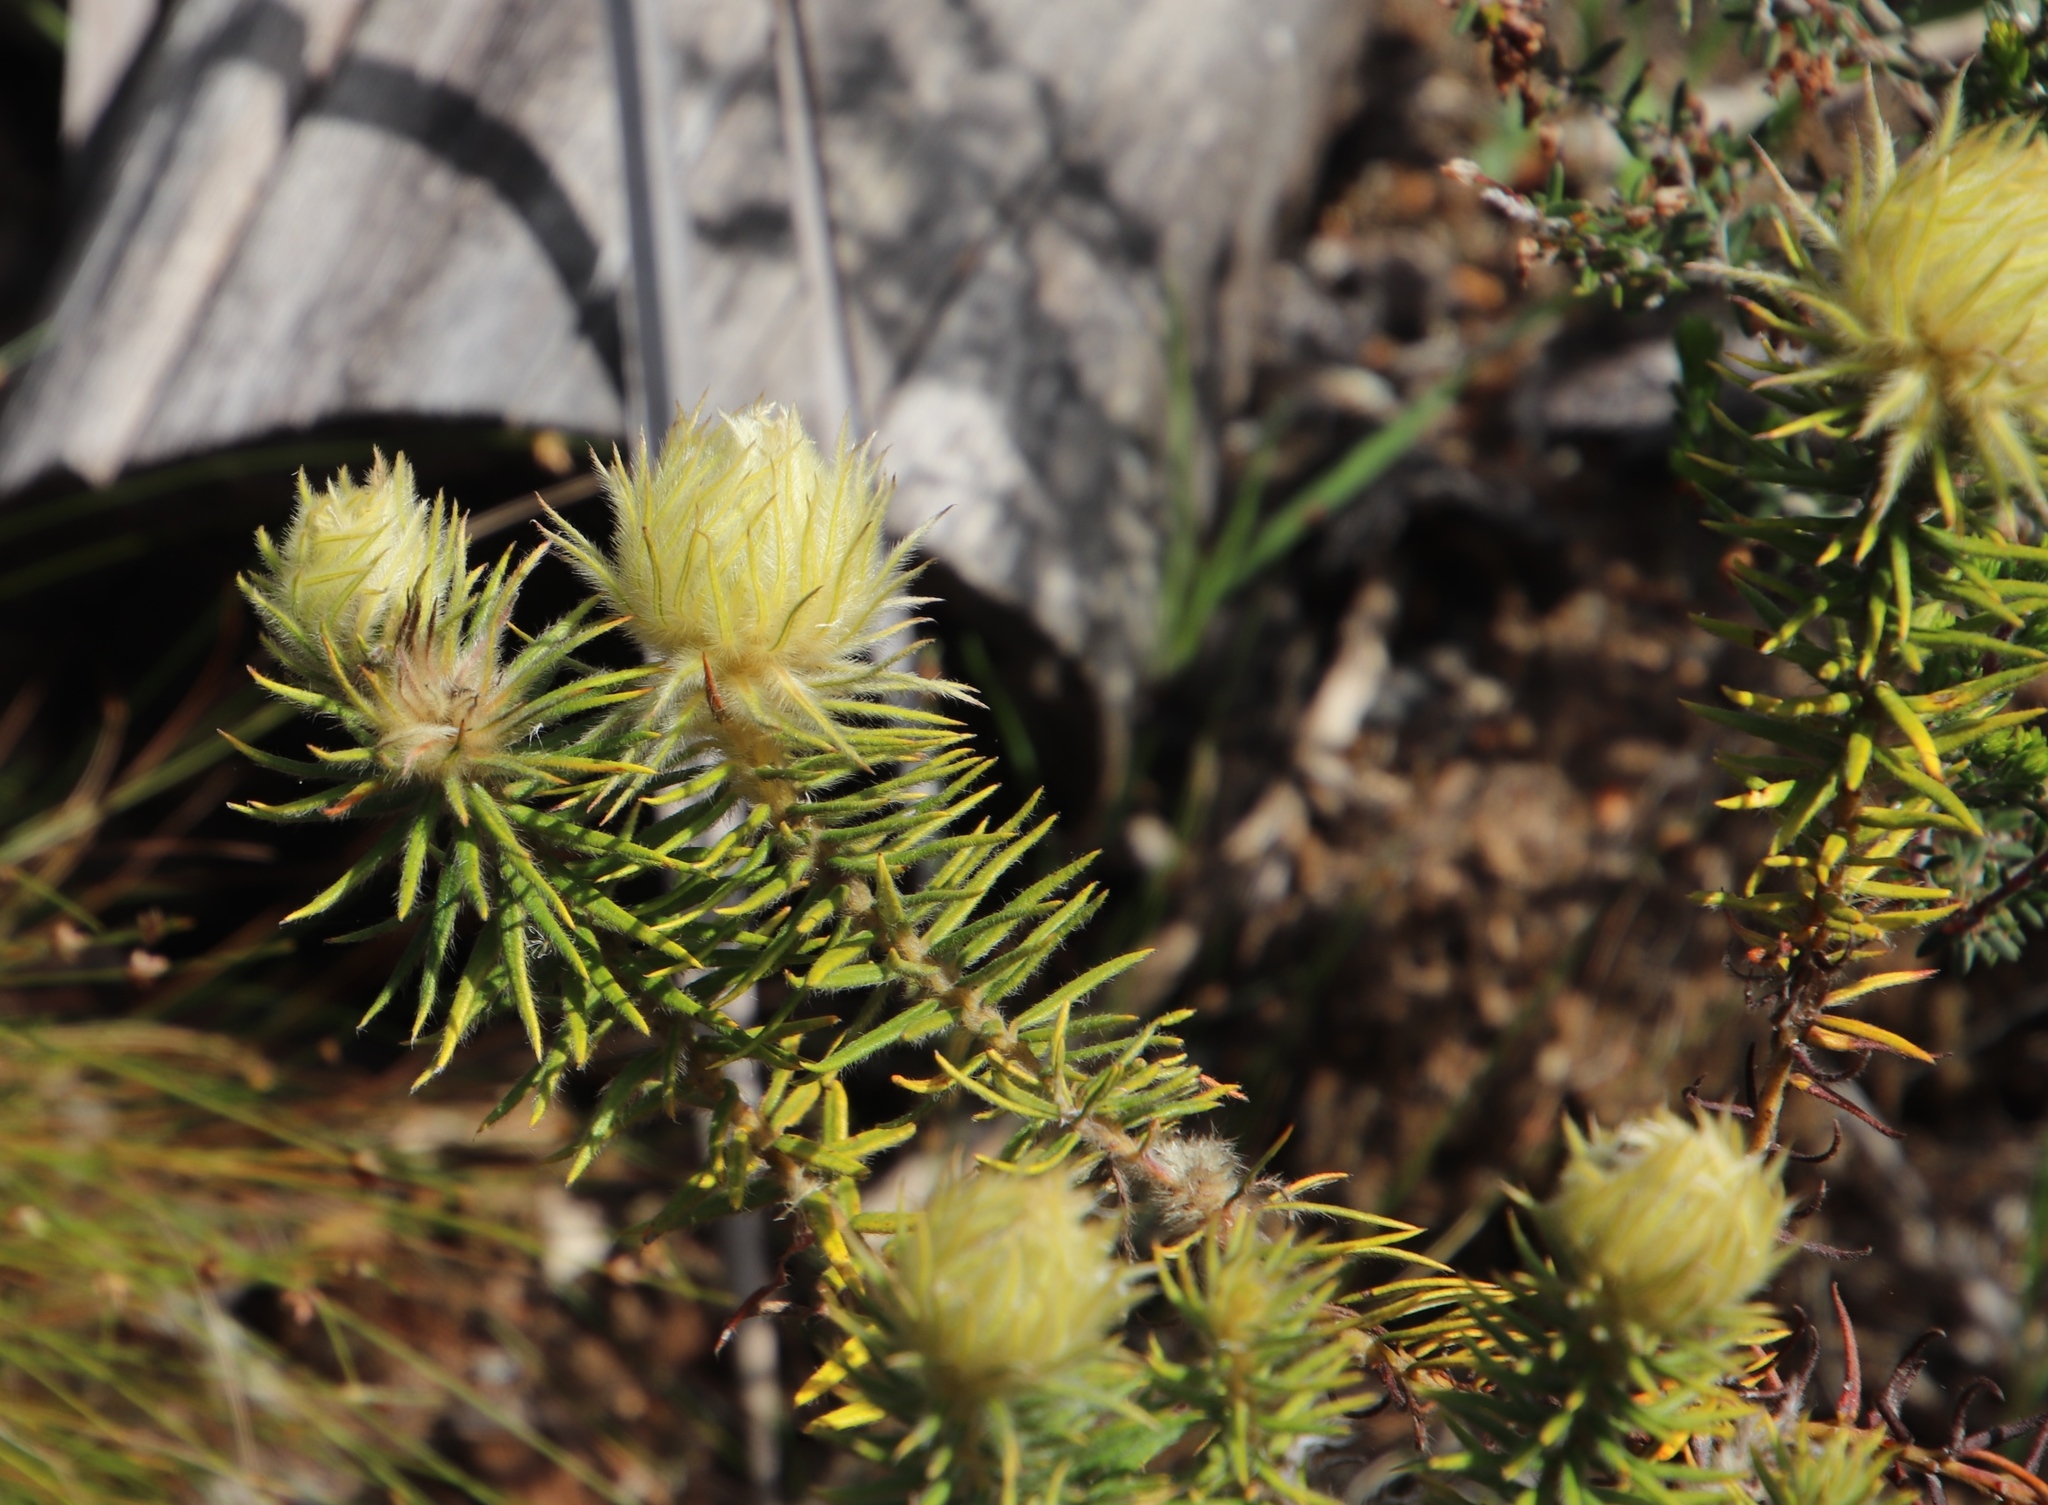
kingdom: Plantae
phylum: Tracheophyta
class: Magnoliopsida
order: Rosales
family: Rhamnaceae
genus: Phylica
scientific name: Phylica plumosa
